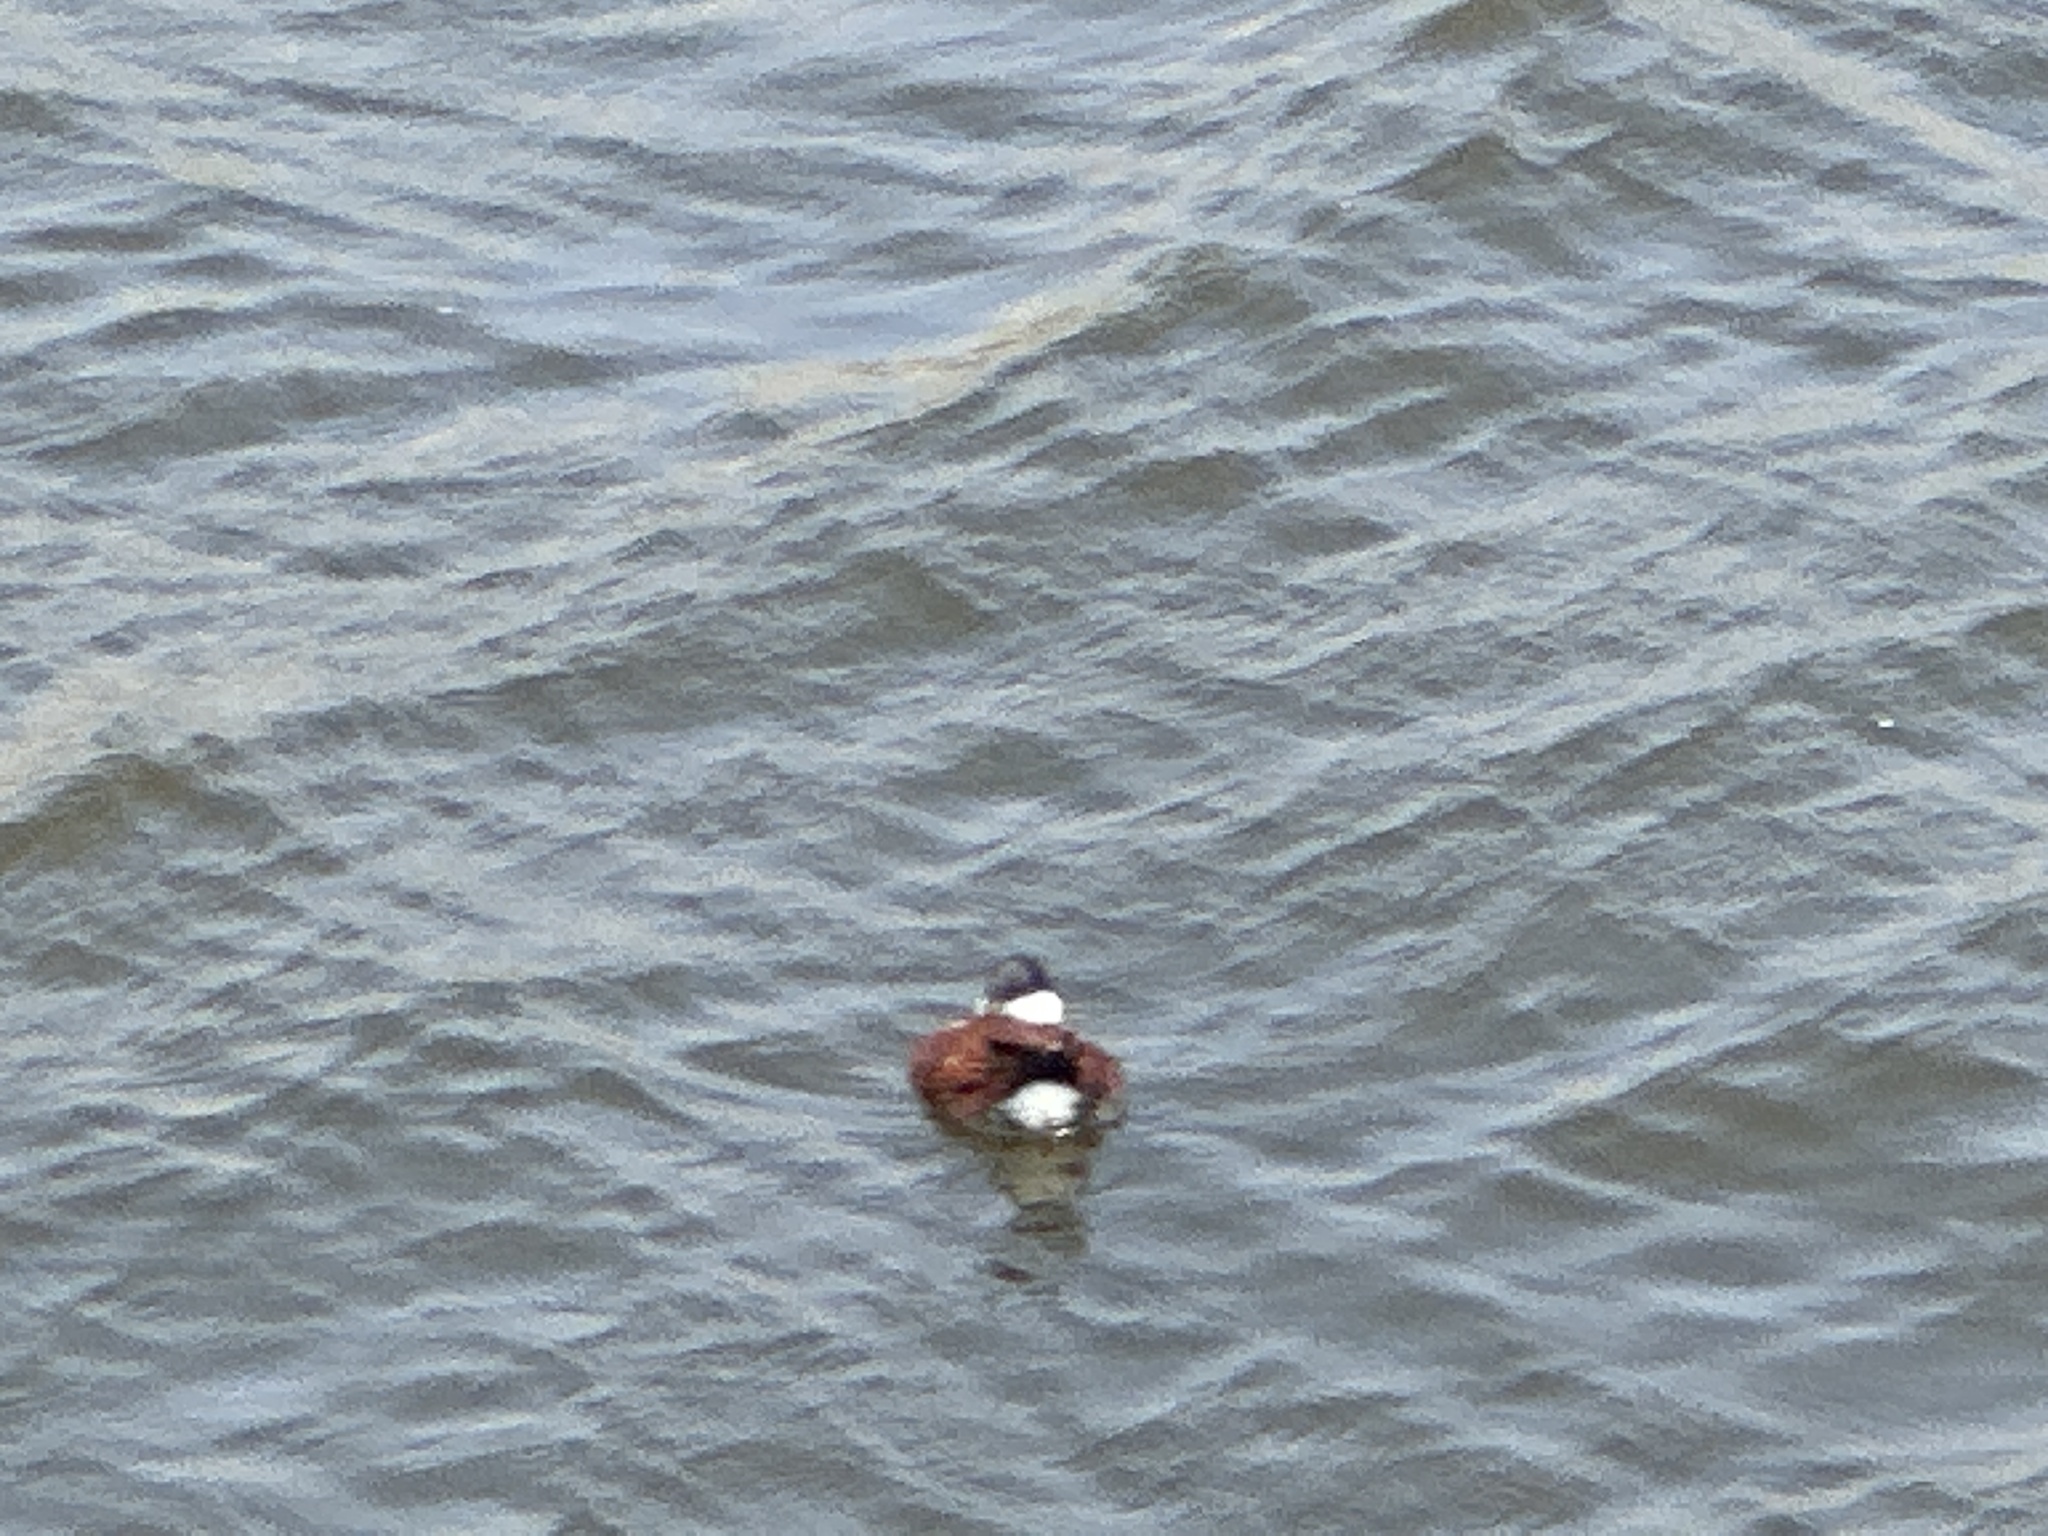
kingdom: Animalia
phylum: Chordata
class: Aves
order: Anseriformes
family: Anatidae
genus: Oxyura
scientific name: Oxyura jamaicensis
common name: Ruddy duck
